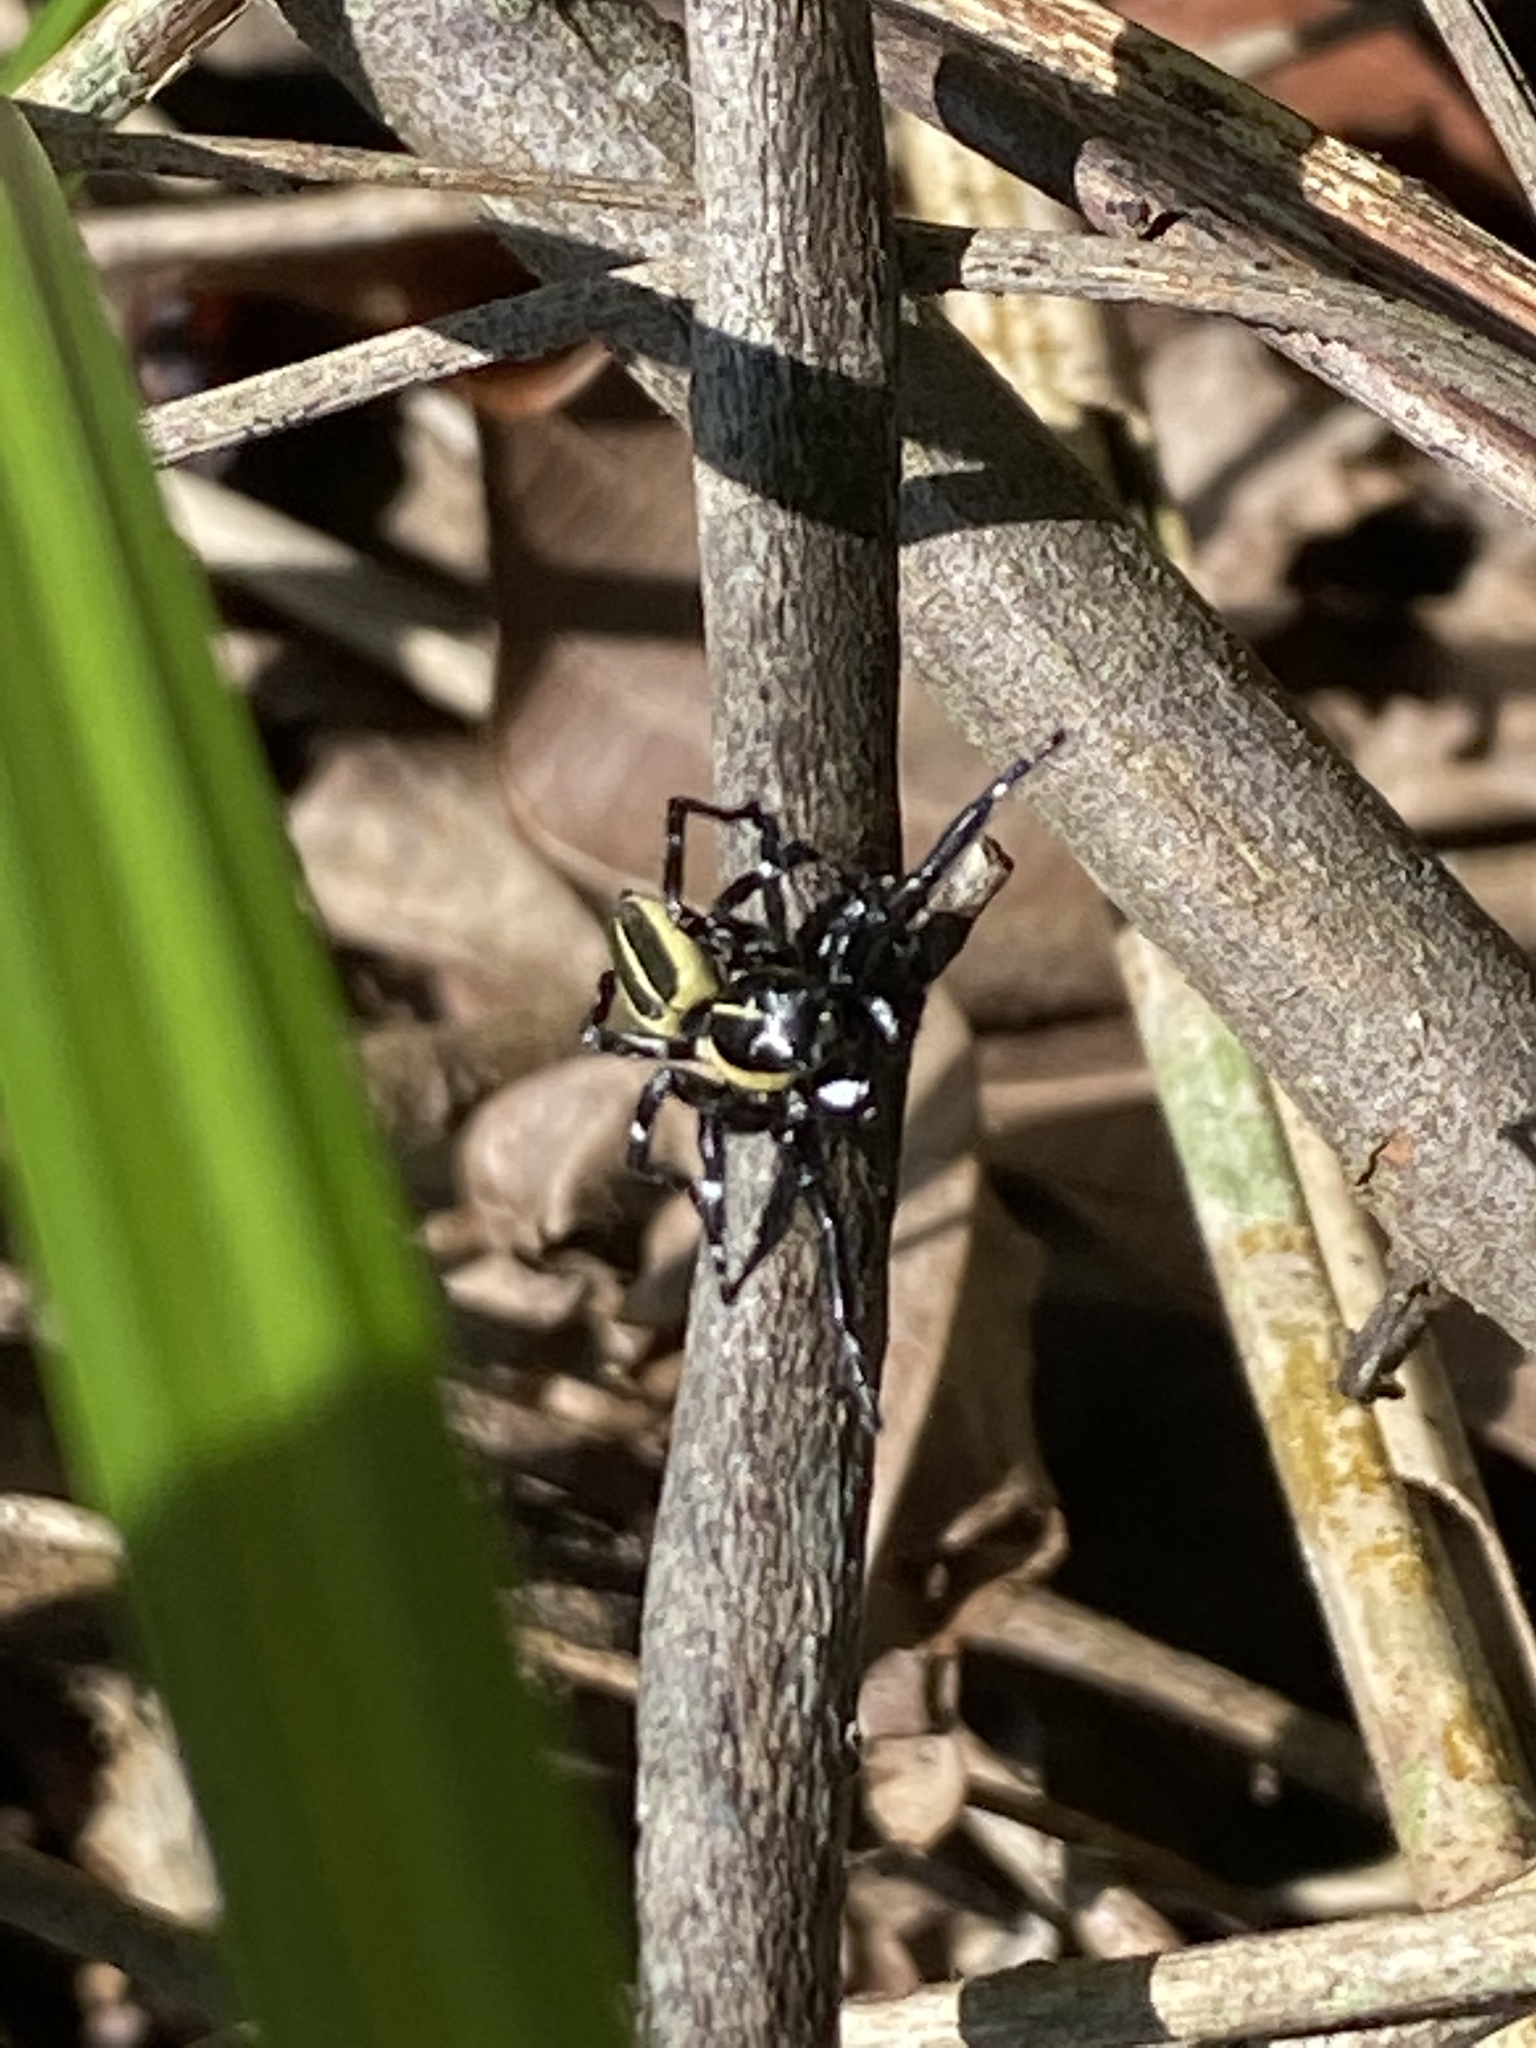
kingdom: Animalia
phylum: Arthropoda
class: Arachnida
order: Araneae
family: Salticidae
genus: Phiale
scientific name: Phiale tristis
